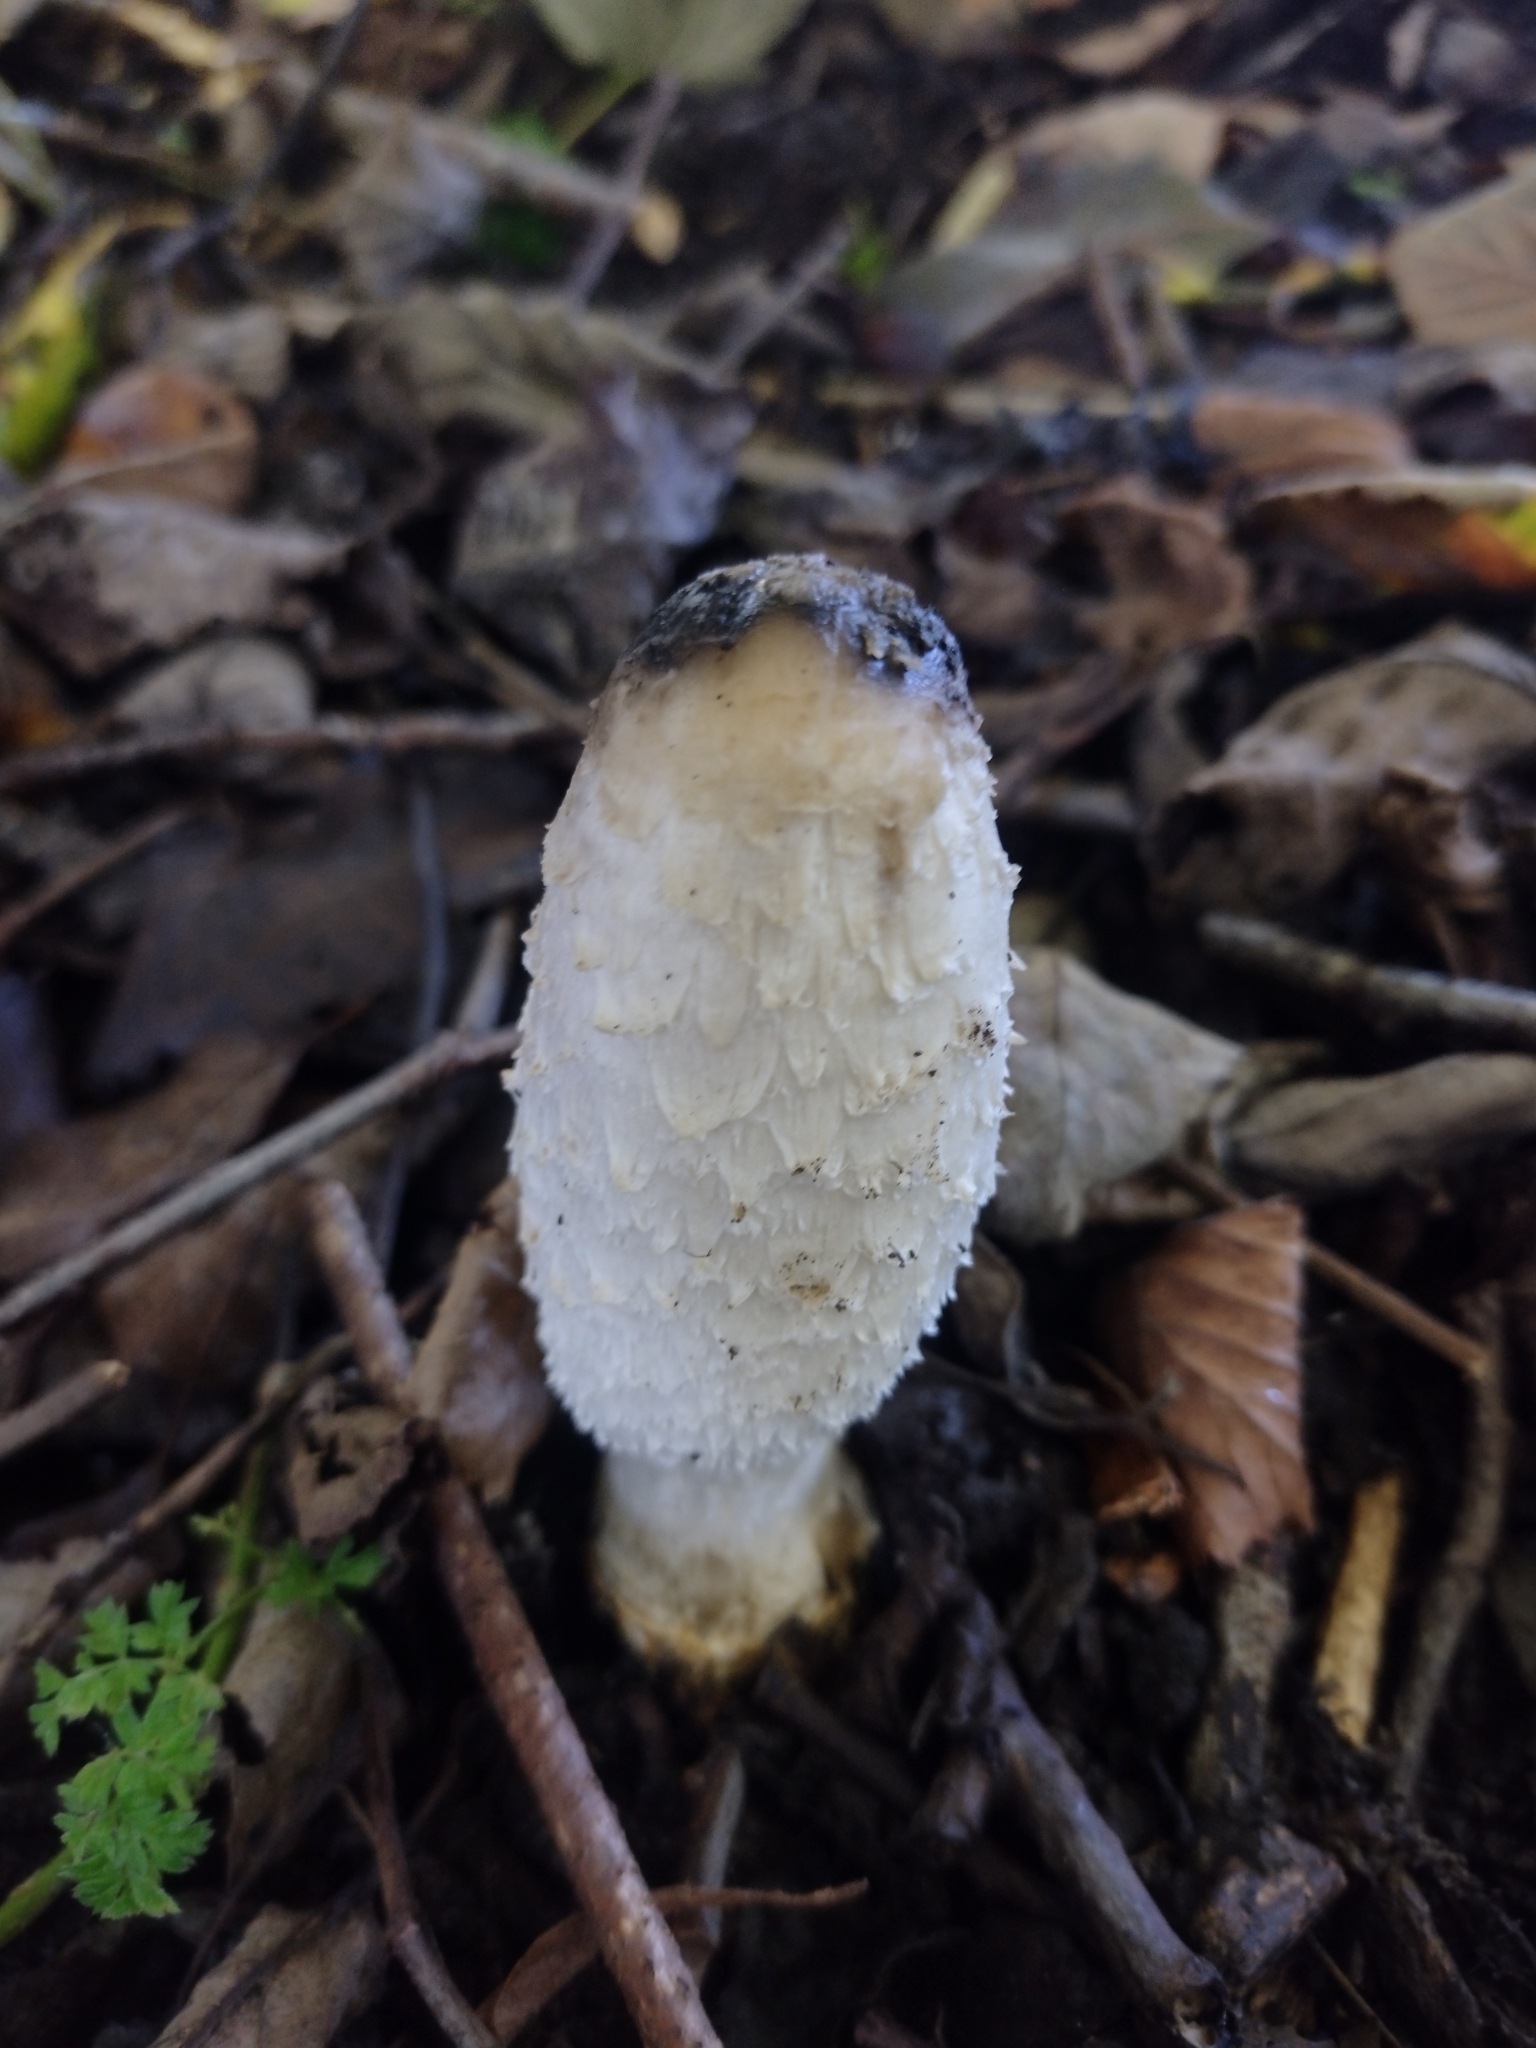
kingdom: Fungi
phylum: Basidiomycota
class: Agaricomycetes
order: Agaricales
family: Agaricaceae
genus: Coprinus
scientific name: Coprinus comatus
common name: Lawyer's wig
